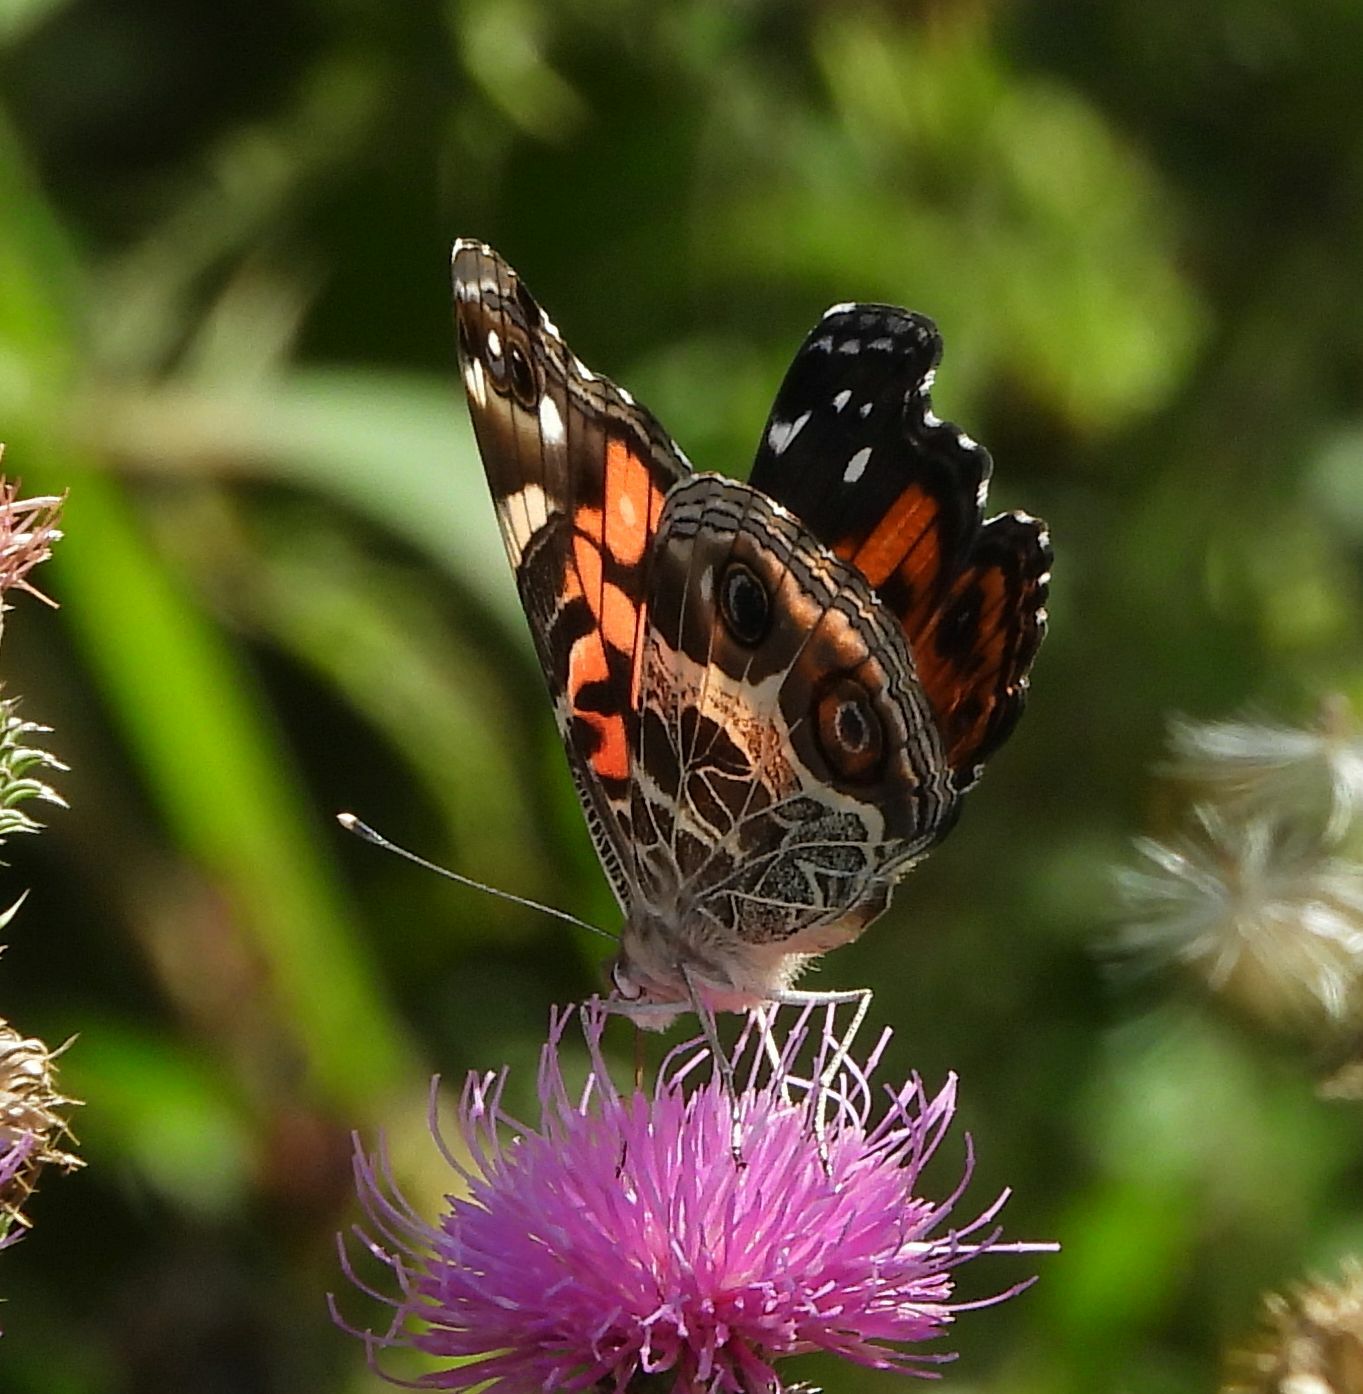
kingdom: Animalia
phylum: Arthropoda
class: Insecta
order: Lepidoptera
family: Nymphalidae
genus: Vanessa
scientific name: Vanessa virginiensis
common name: American lady
